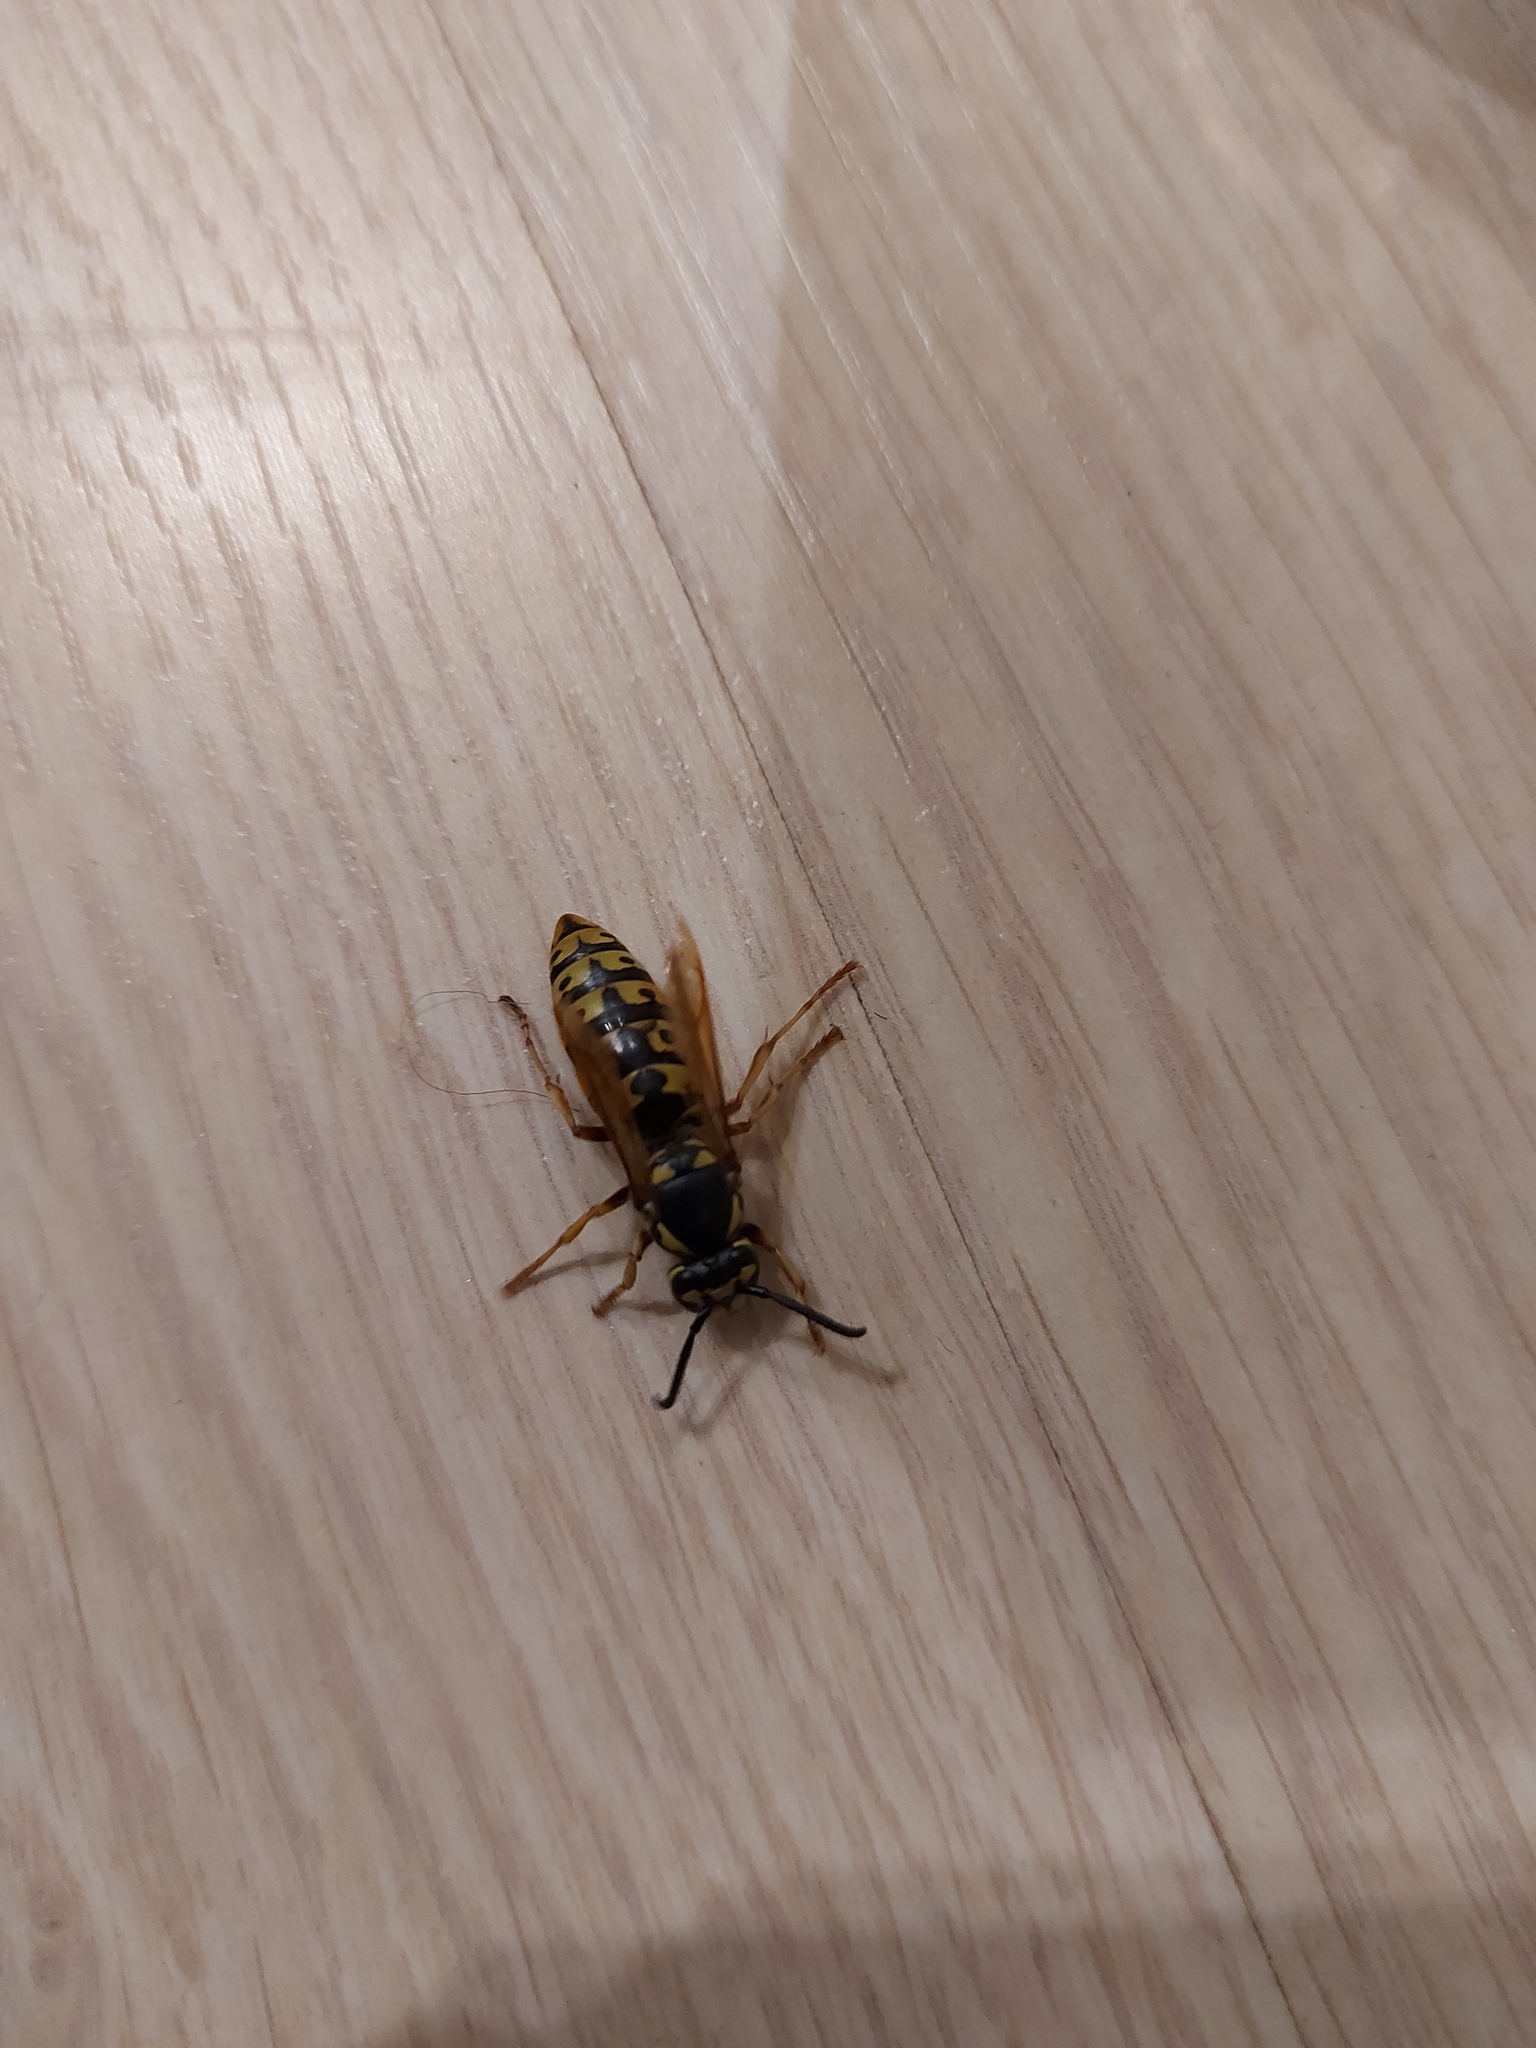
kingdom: Animalia
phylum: Arthropoda
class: Insecta
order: Hymenoptera
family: Vespidae
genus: Vespula
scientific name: Vespula germanica
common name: German wasp
